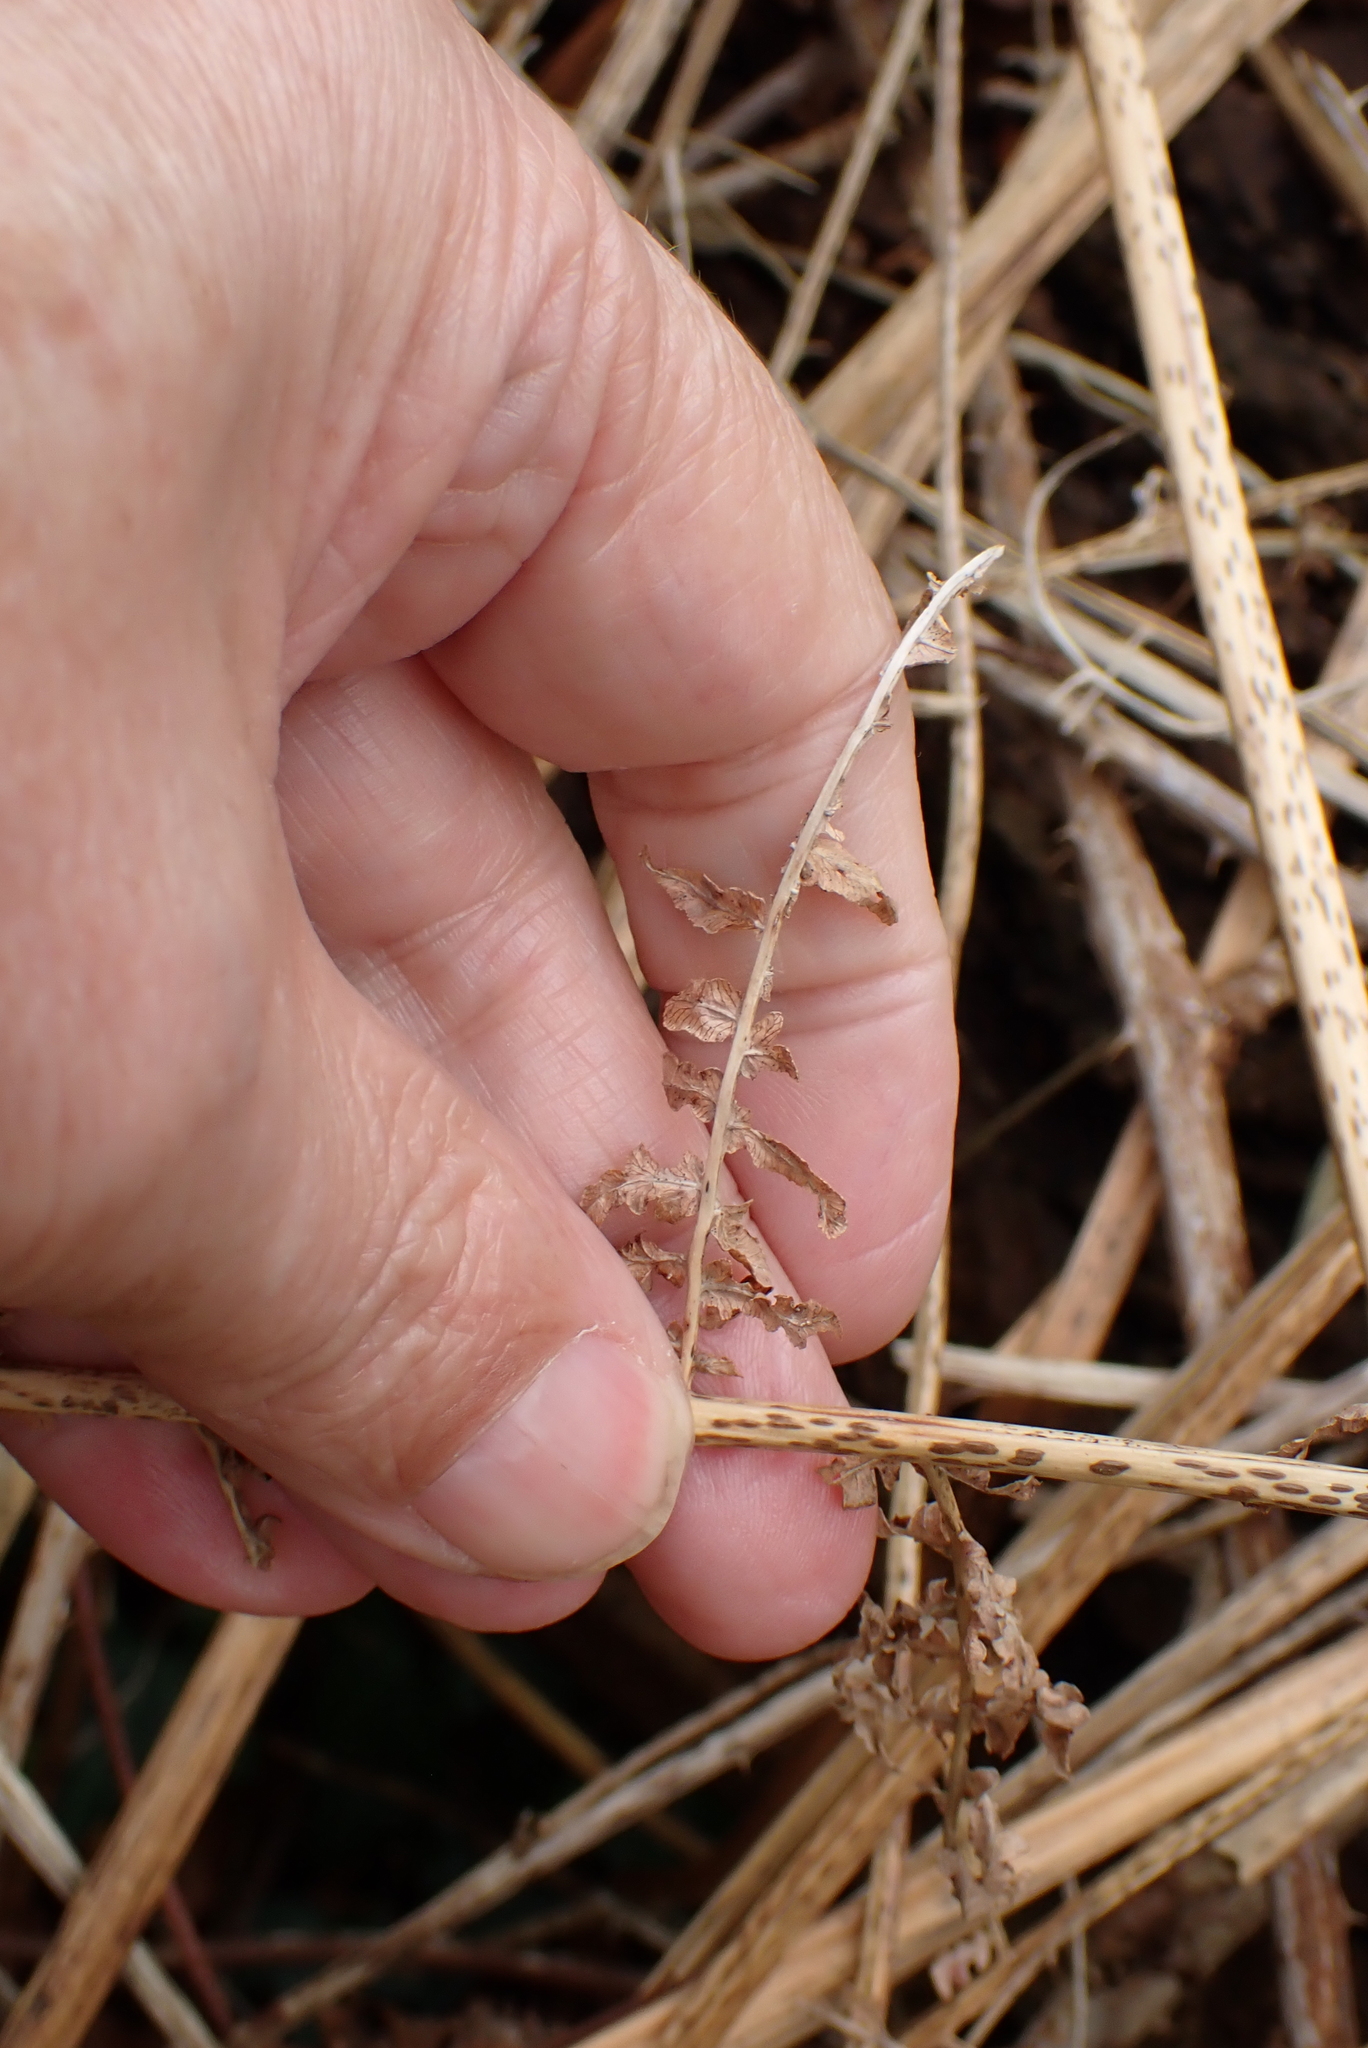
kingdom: Plantae
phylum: Tracheophyta
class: Polypodiopsida
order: Polypodiales
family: Dennstaedtiaceae
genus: Pteridium
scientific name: Pteridium aquilinum
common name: Bracken
